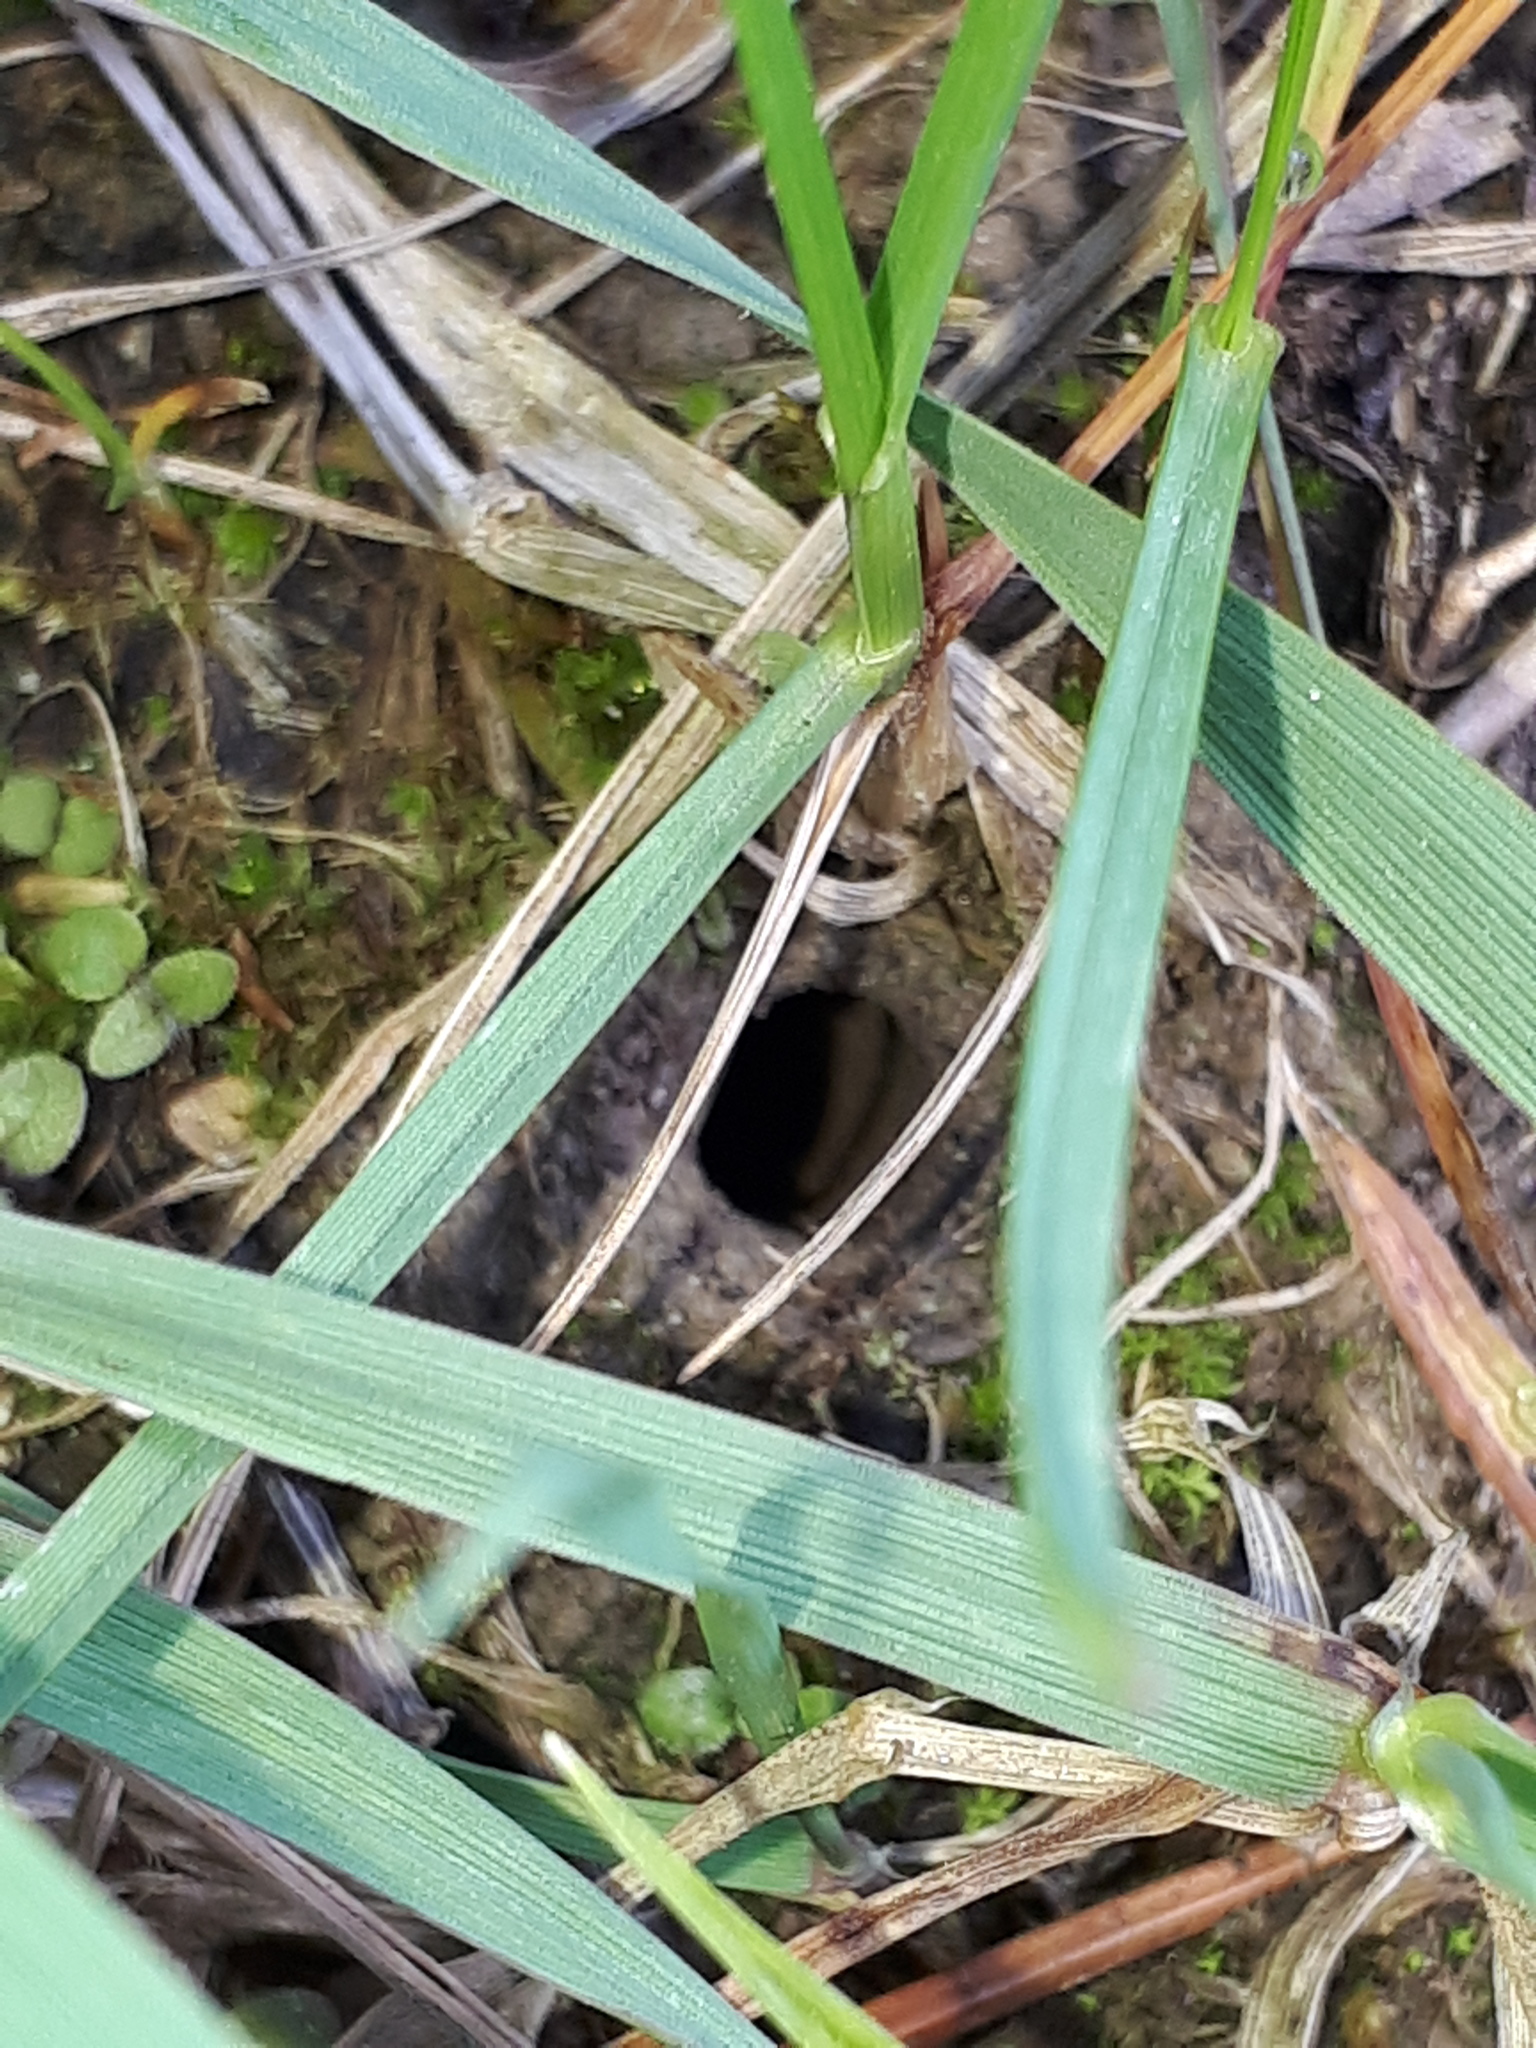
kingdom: Animalia
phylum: Arthropoda
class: Insecta
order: Hymenoptera
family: Halictidae
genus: Sphecodes
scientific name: Sphecodes albilabris
